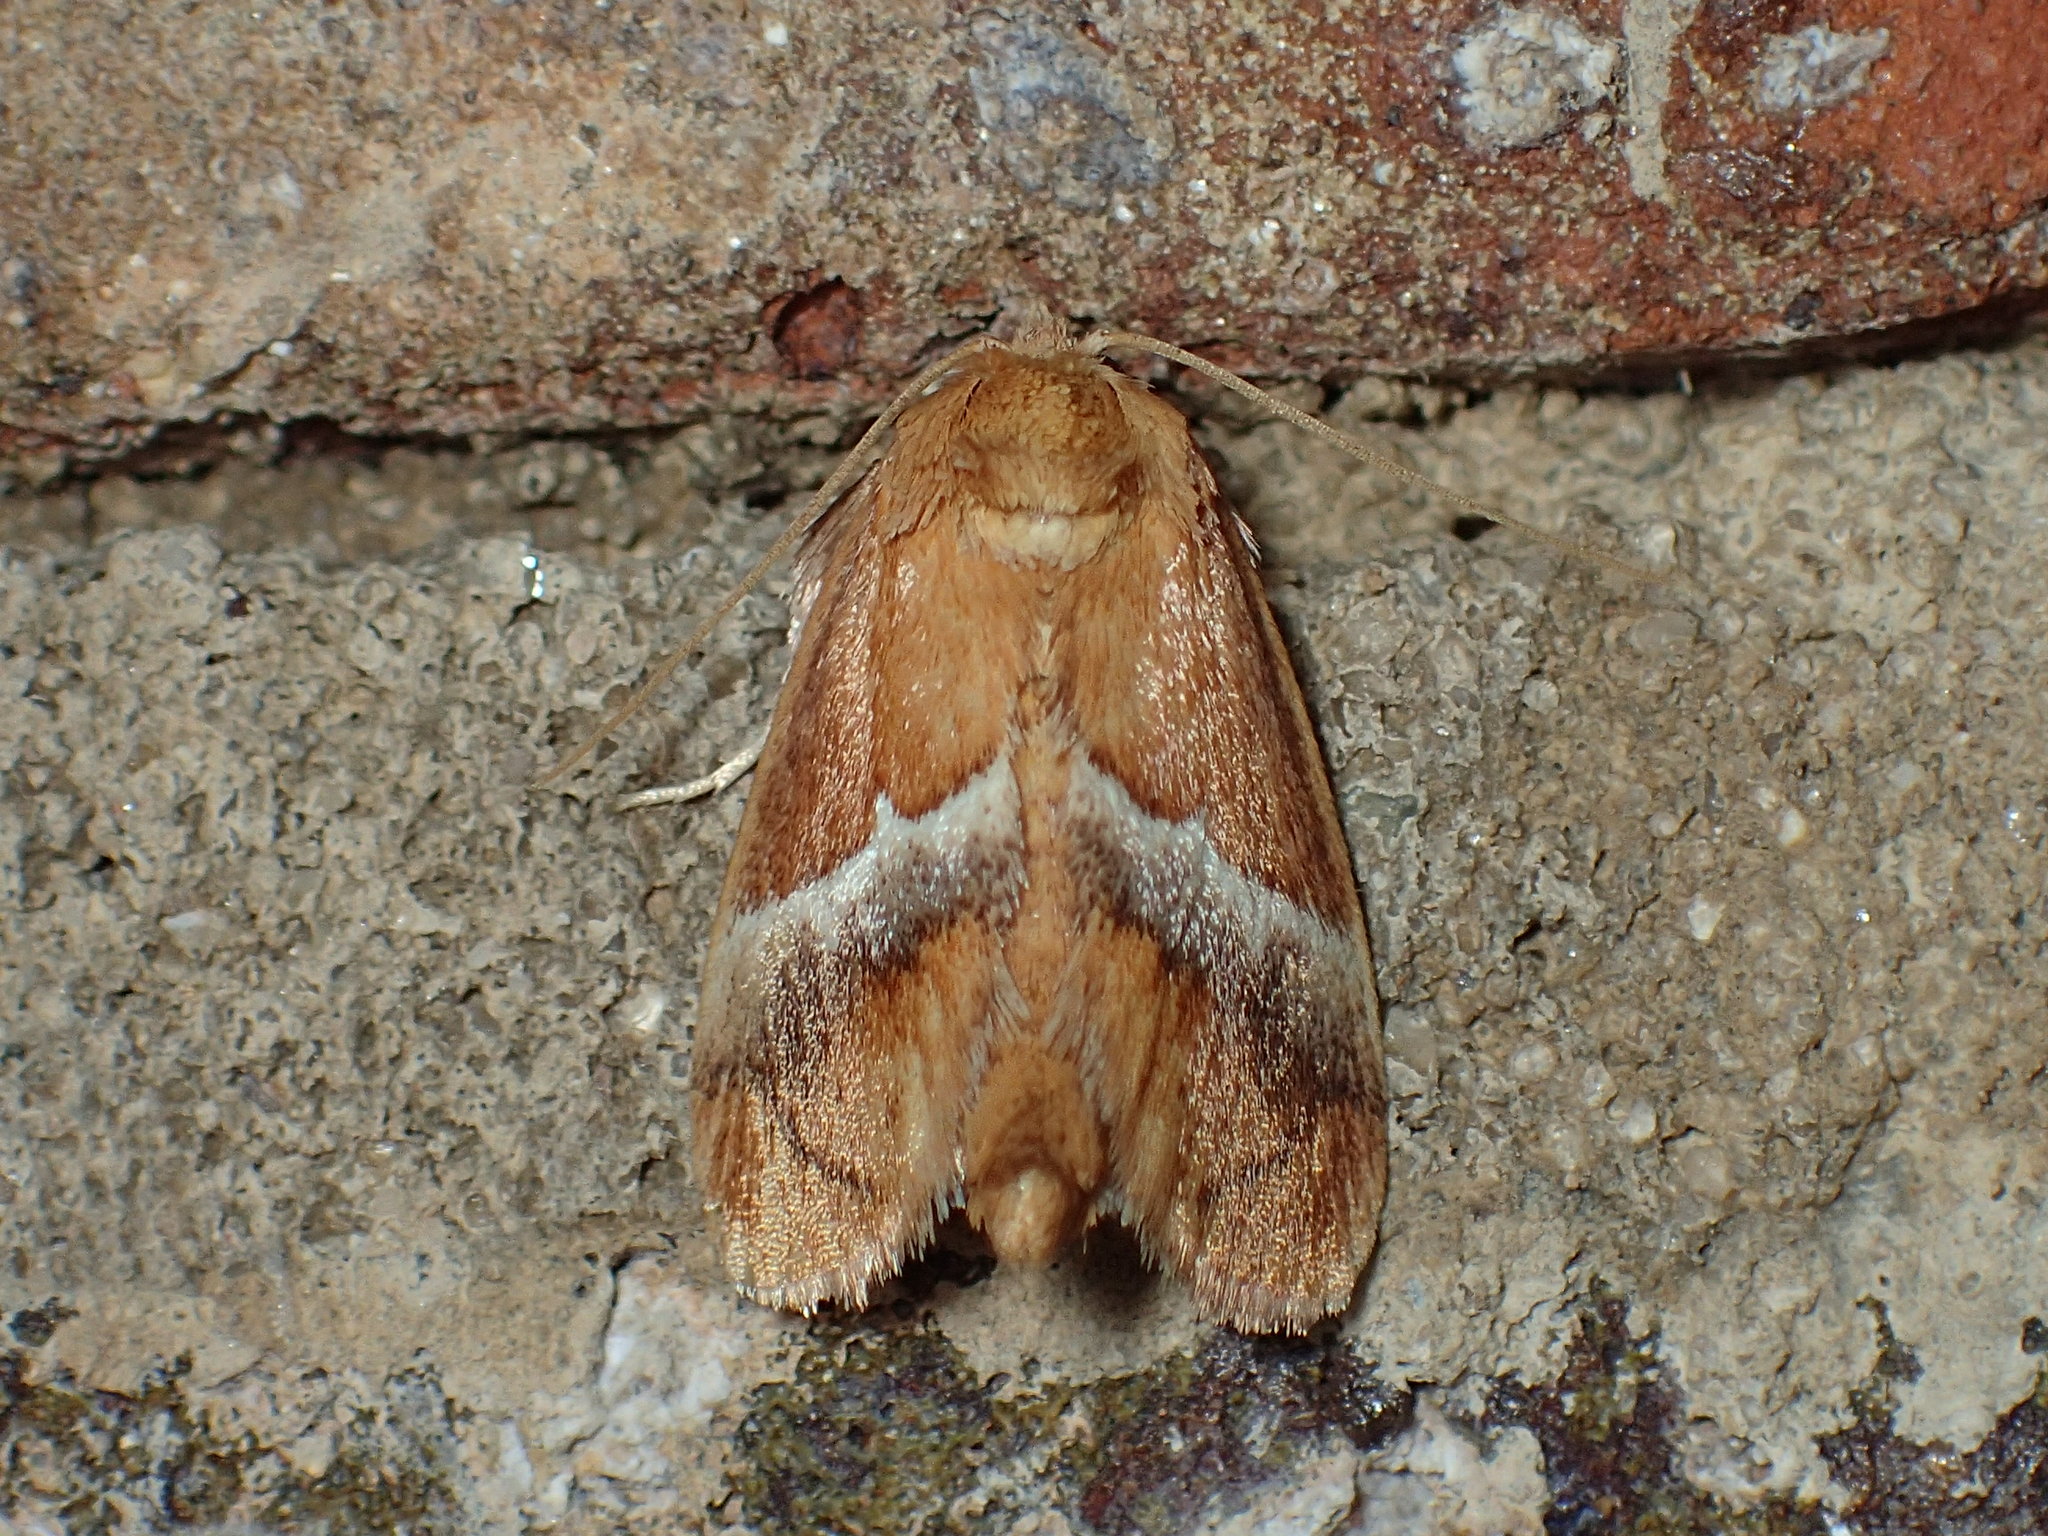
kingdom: Animalia
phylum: Arthropoda
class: Insecta
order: Lepidoptera
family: Limacodidae
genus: Lithacodes
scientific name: Lithacodes fasciola
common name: Yellow-shouldered slug moth
